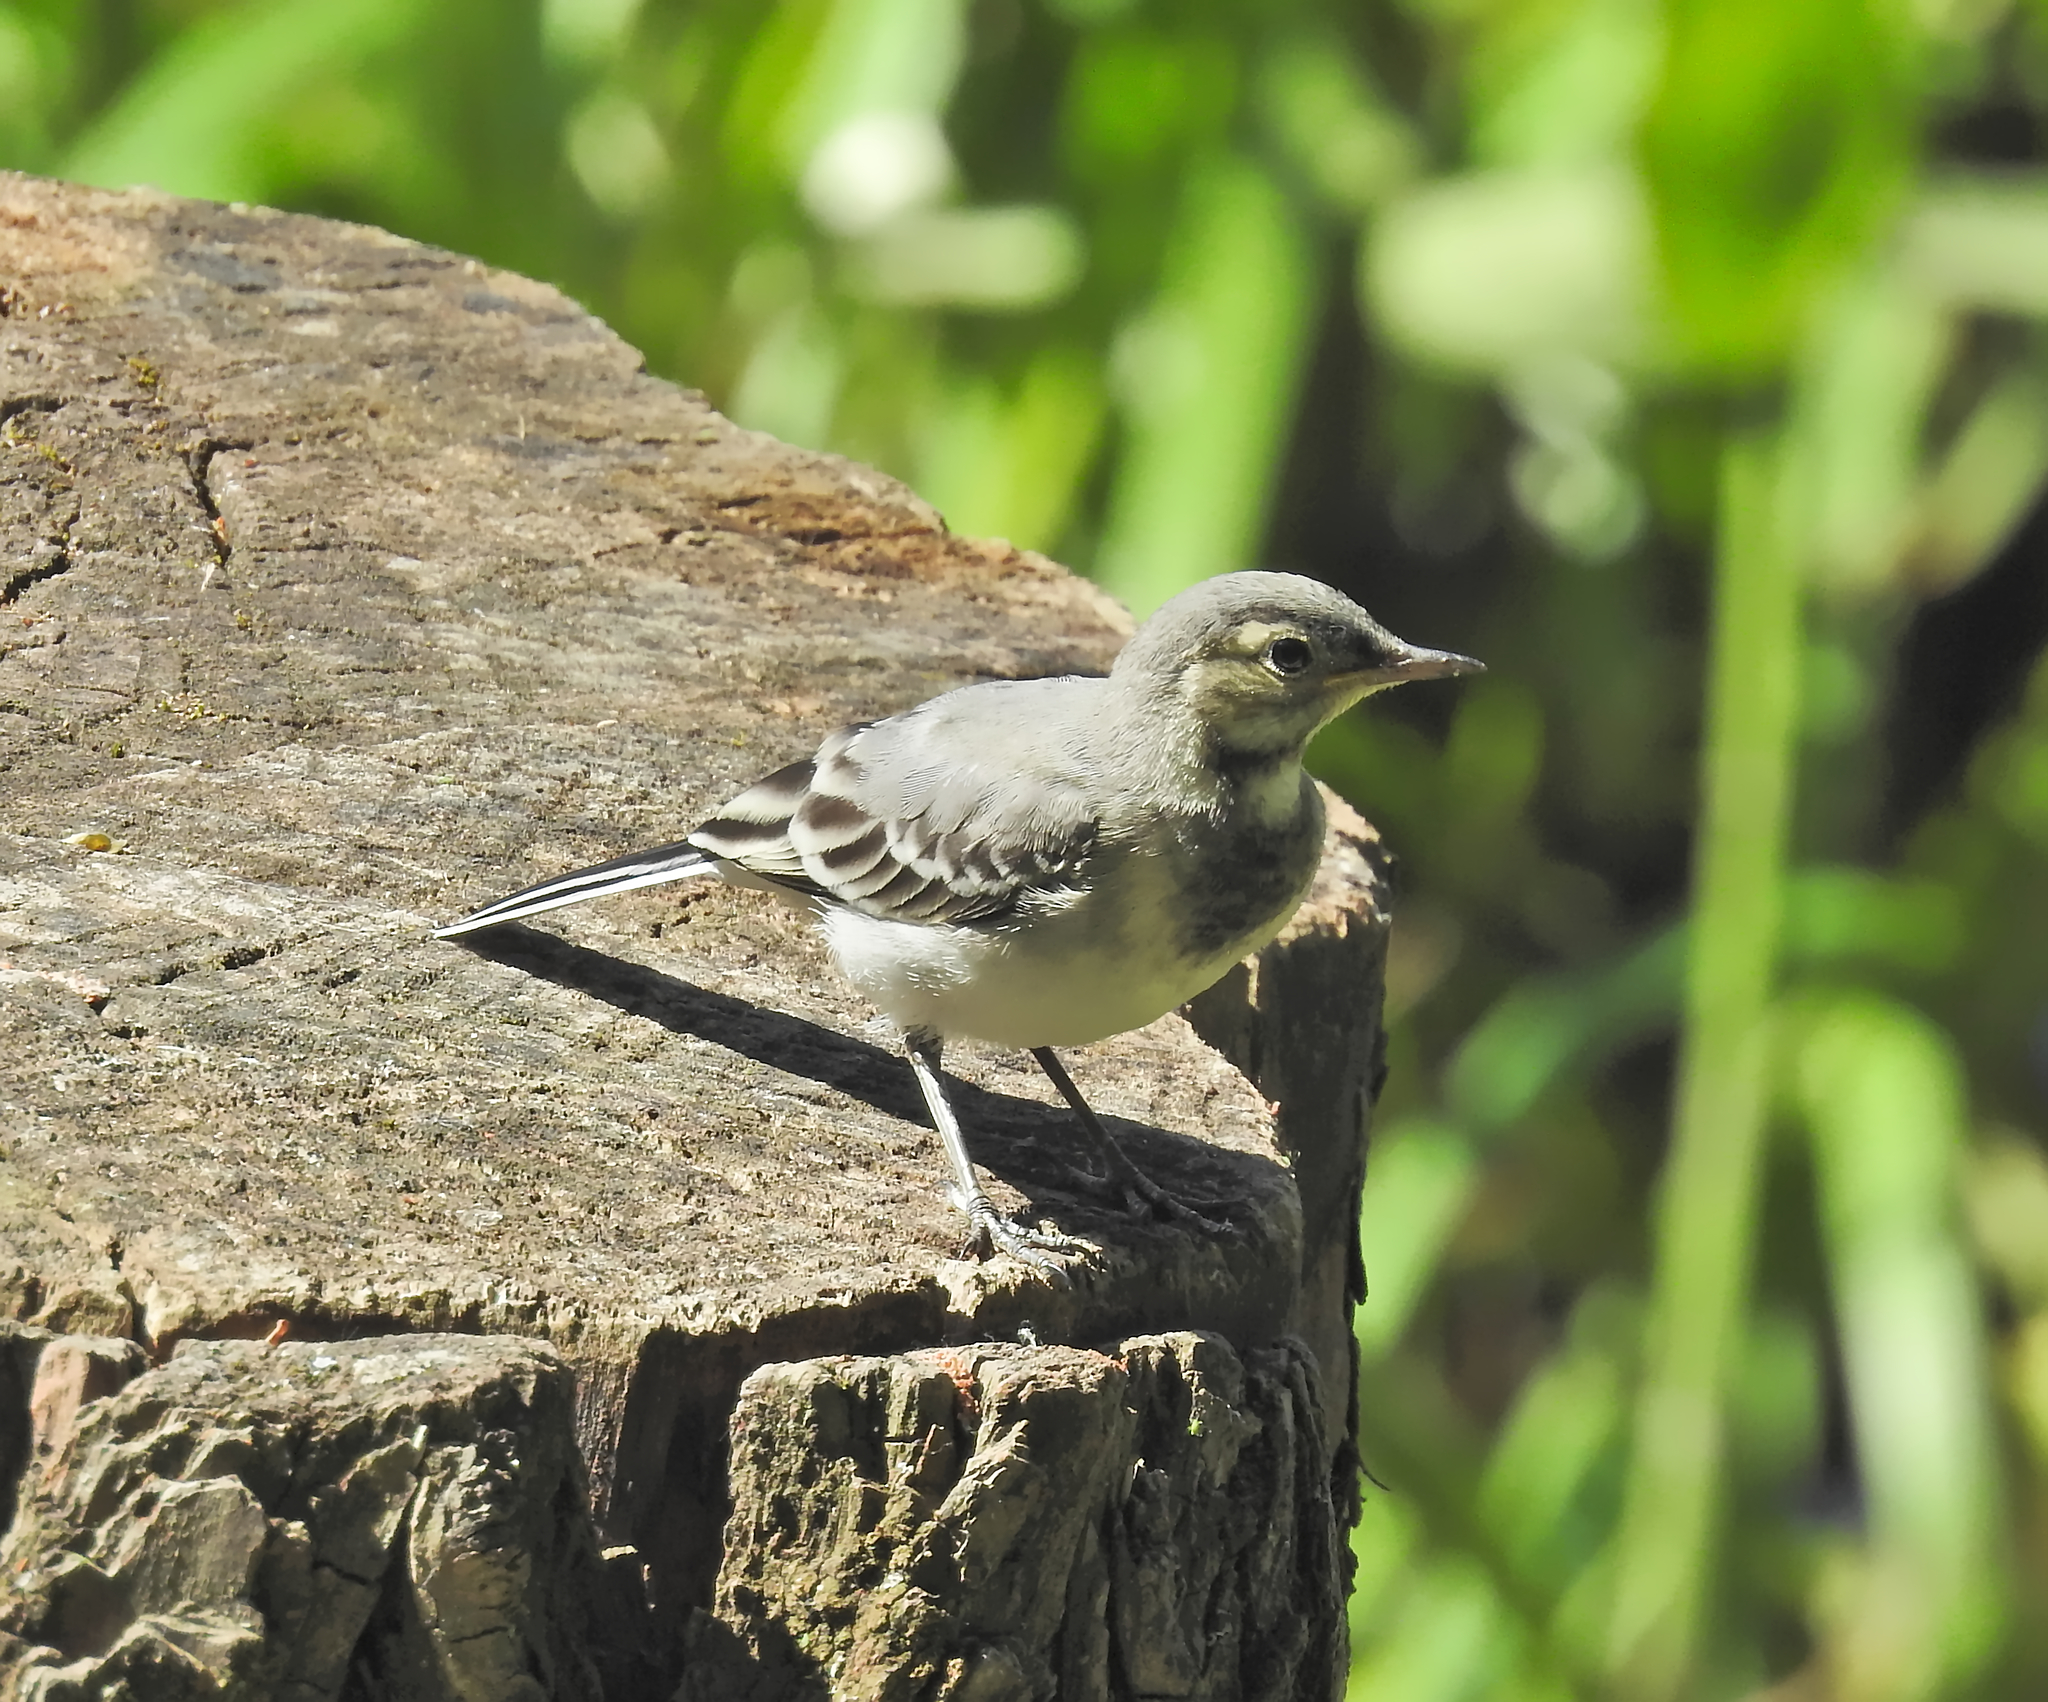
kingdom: Animalia
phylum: Chordata
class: Aves
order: Passeriformes
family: Motacillidae
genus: Motacilla
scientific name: Motacilla alba
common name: White wagtail
